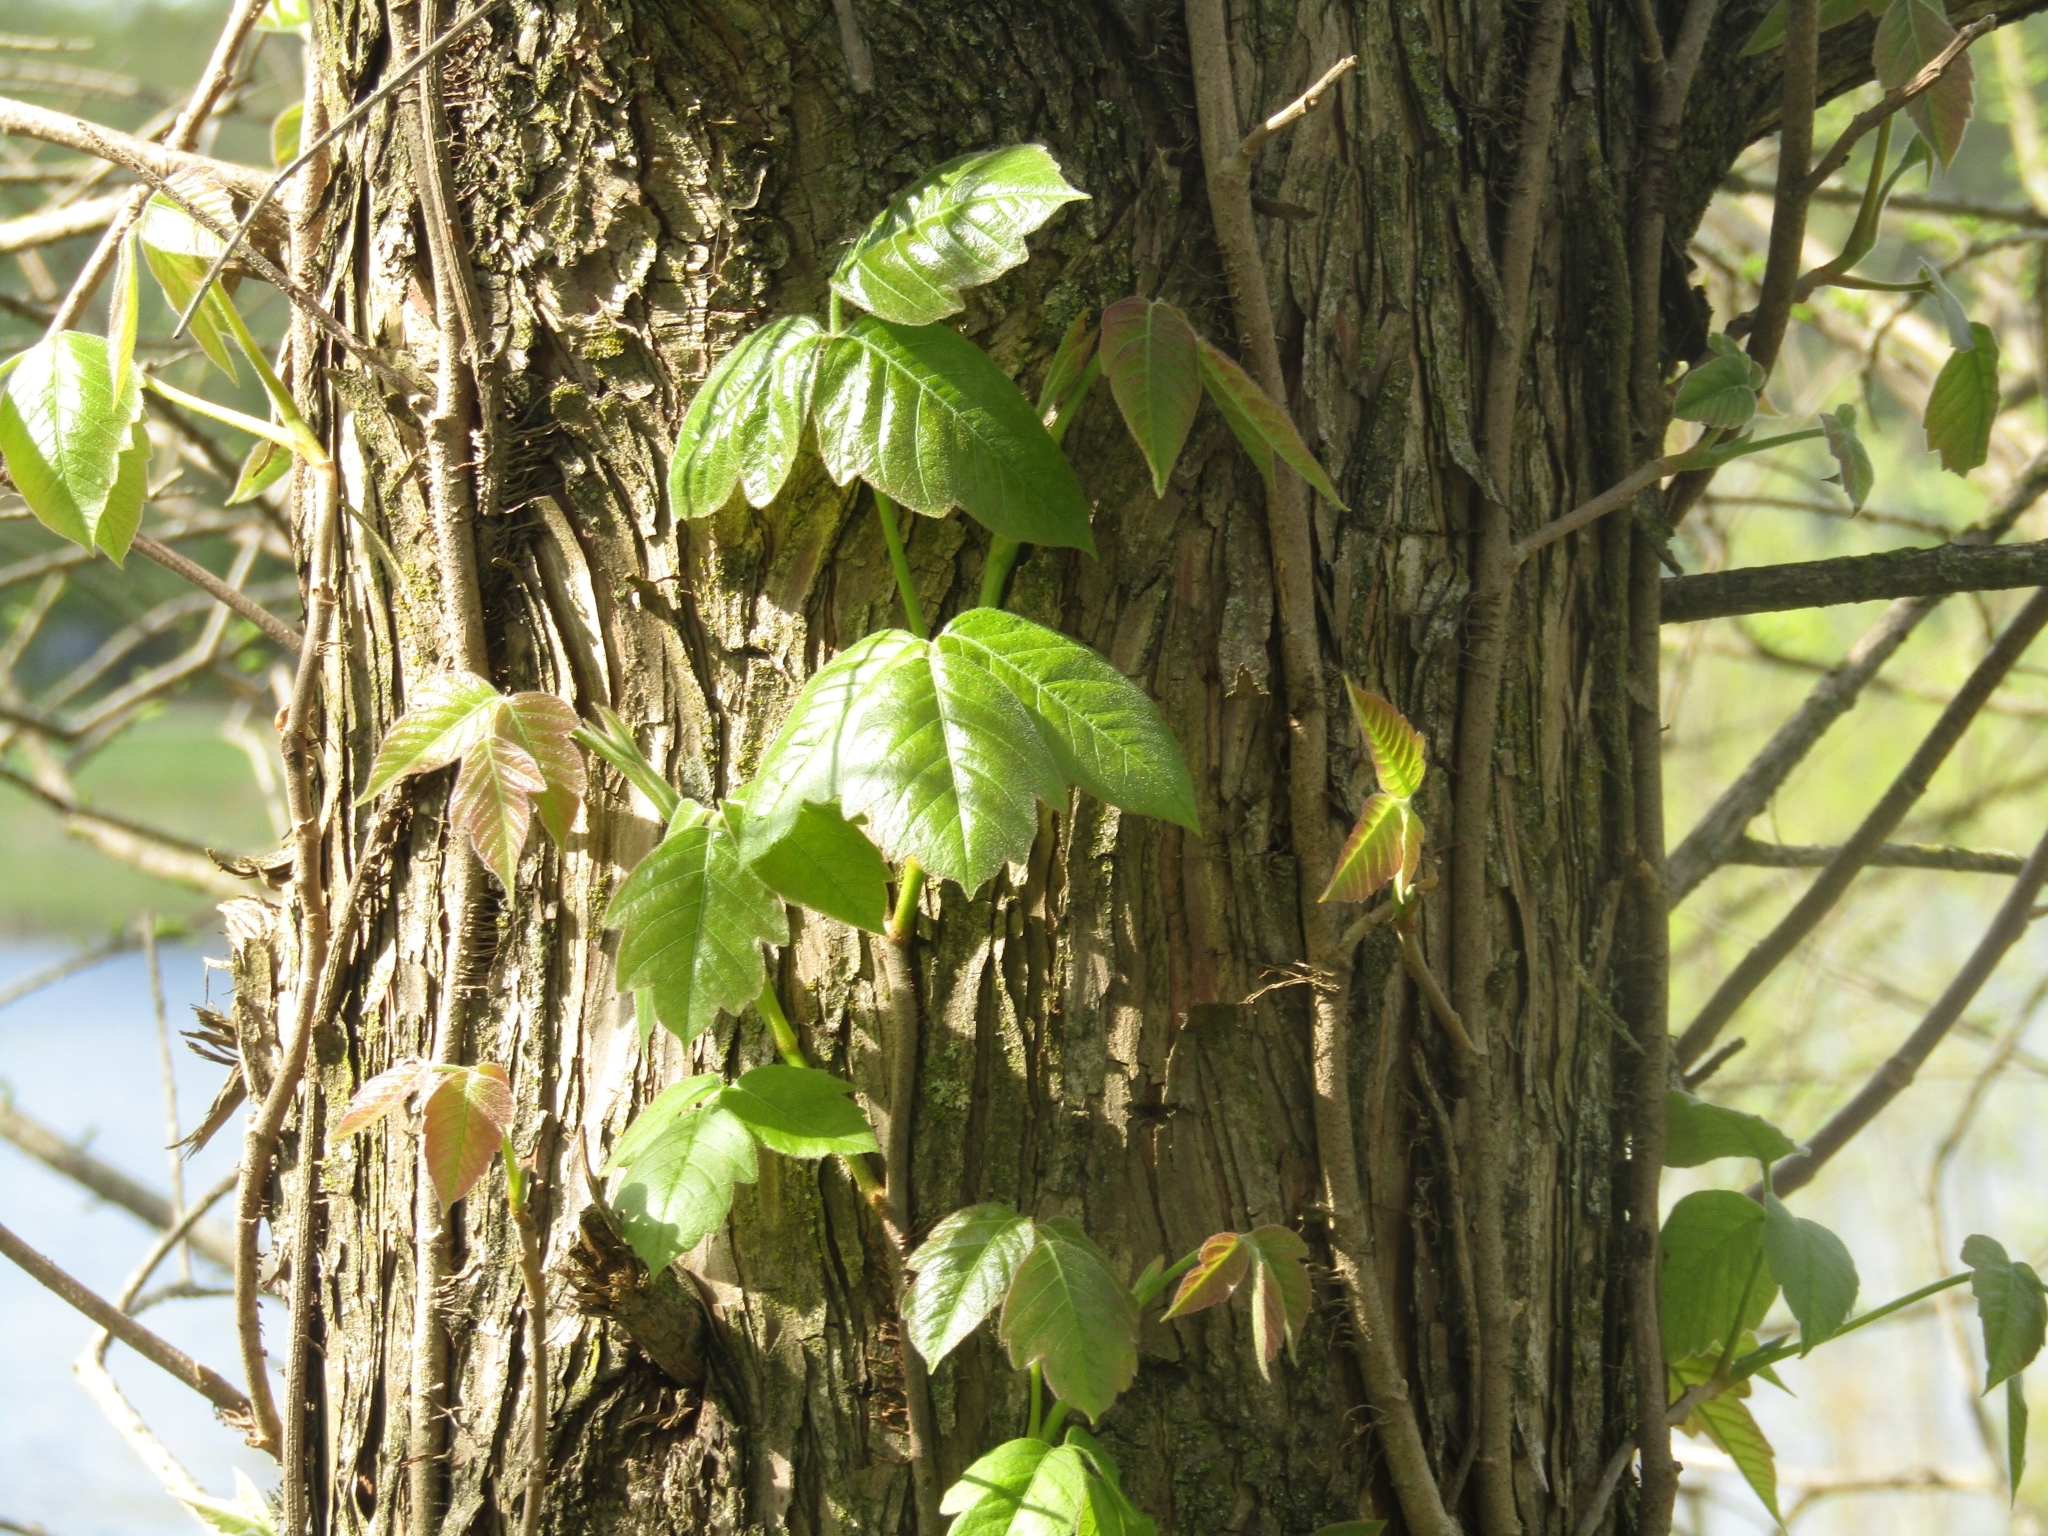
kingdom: Plantae
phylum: Tracheophyta
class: Magnoliopsida
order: Sapindales
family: Anacardiaceae
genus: Toxicodendron
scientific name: Toxicodendron radicans
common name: Poison ivy
